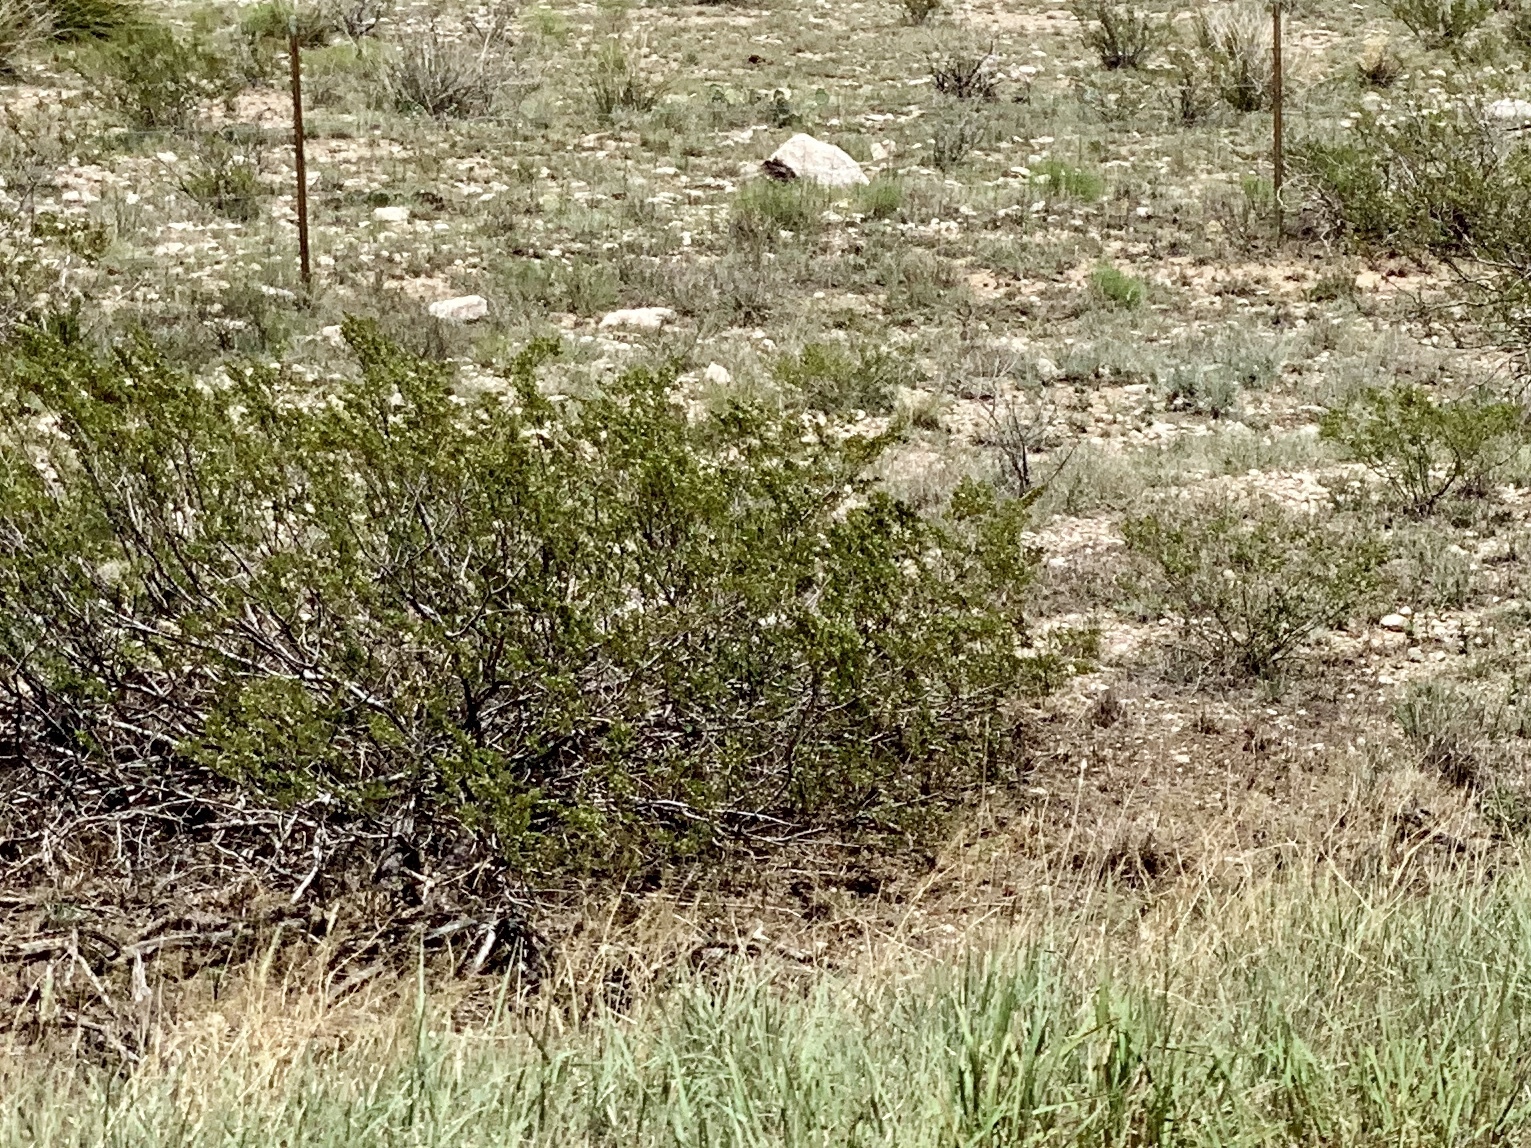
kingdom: Plantae
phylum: Tracheophyta
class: Magnoliopsida
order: Zygophyllales
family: Zygophyllaceae
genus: Larrea
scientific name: Larrea tridentata
